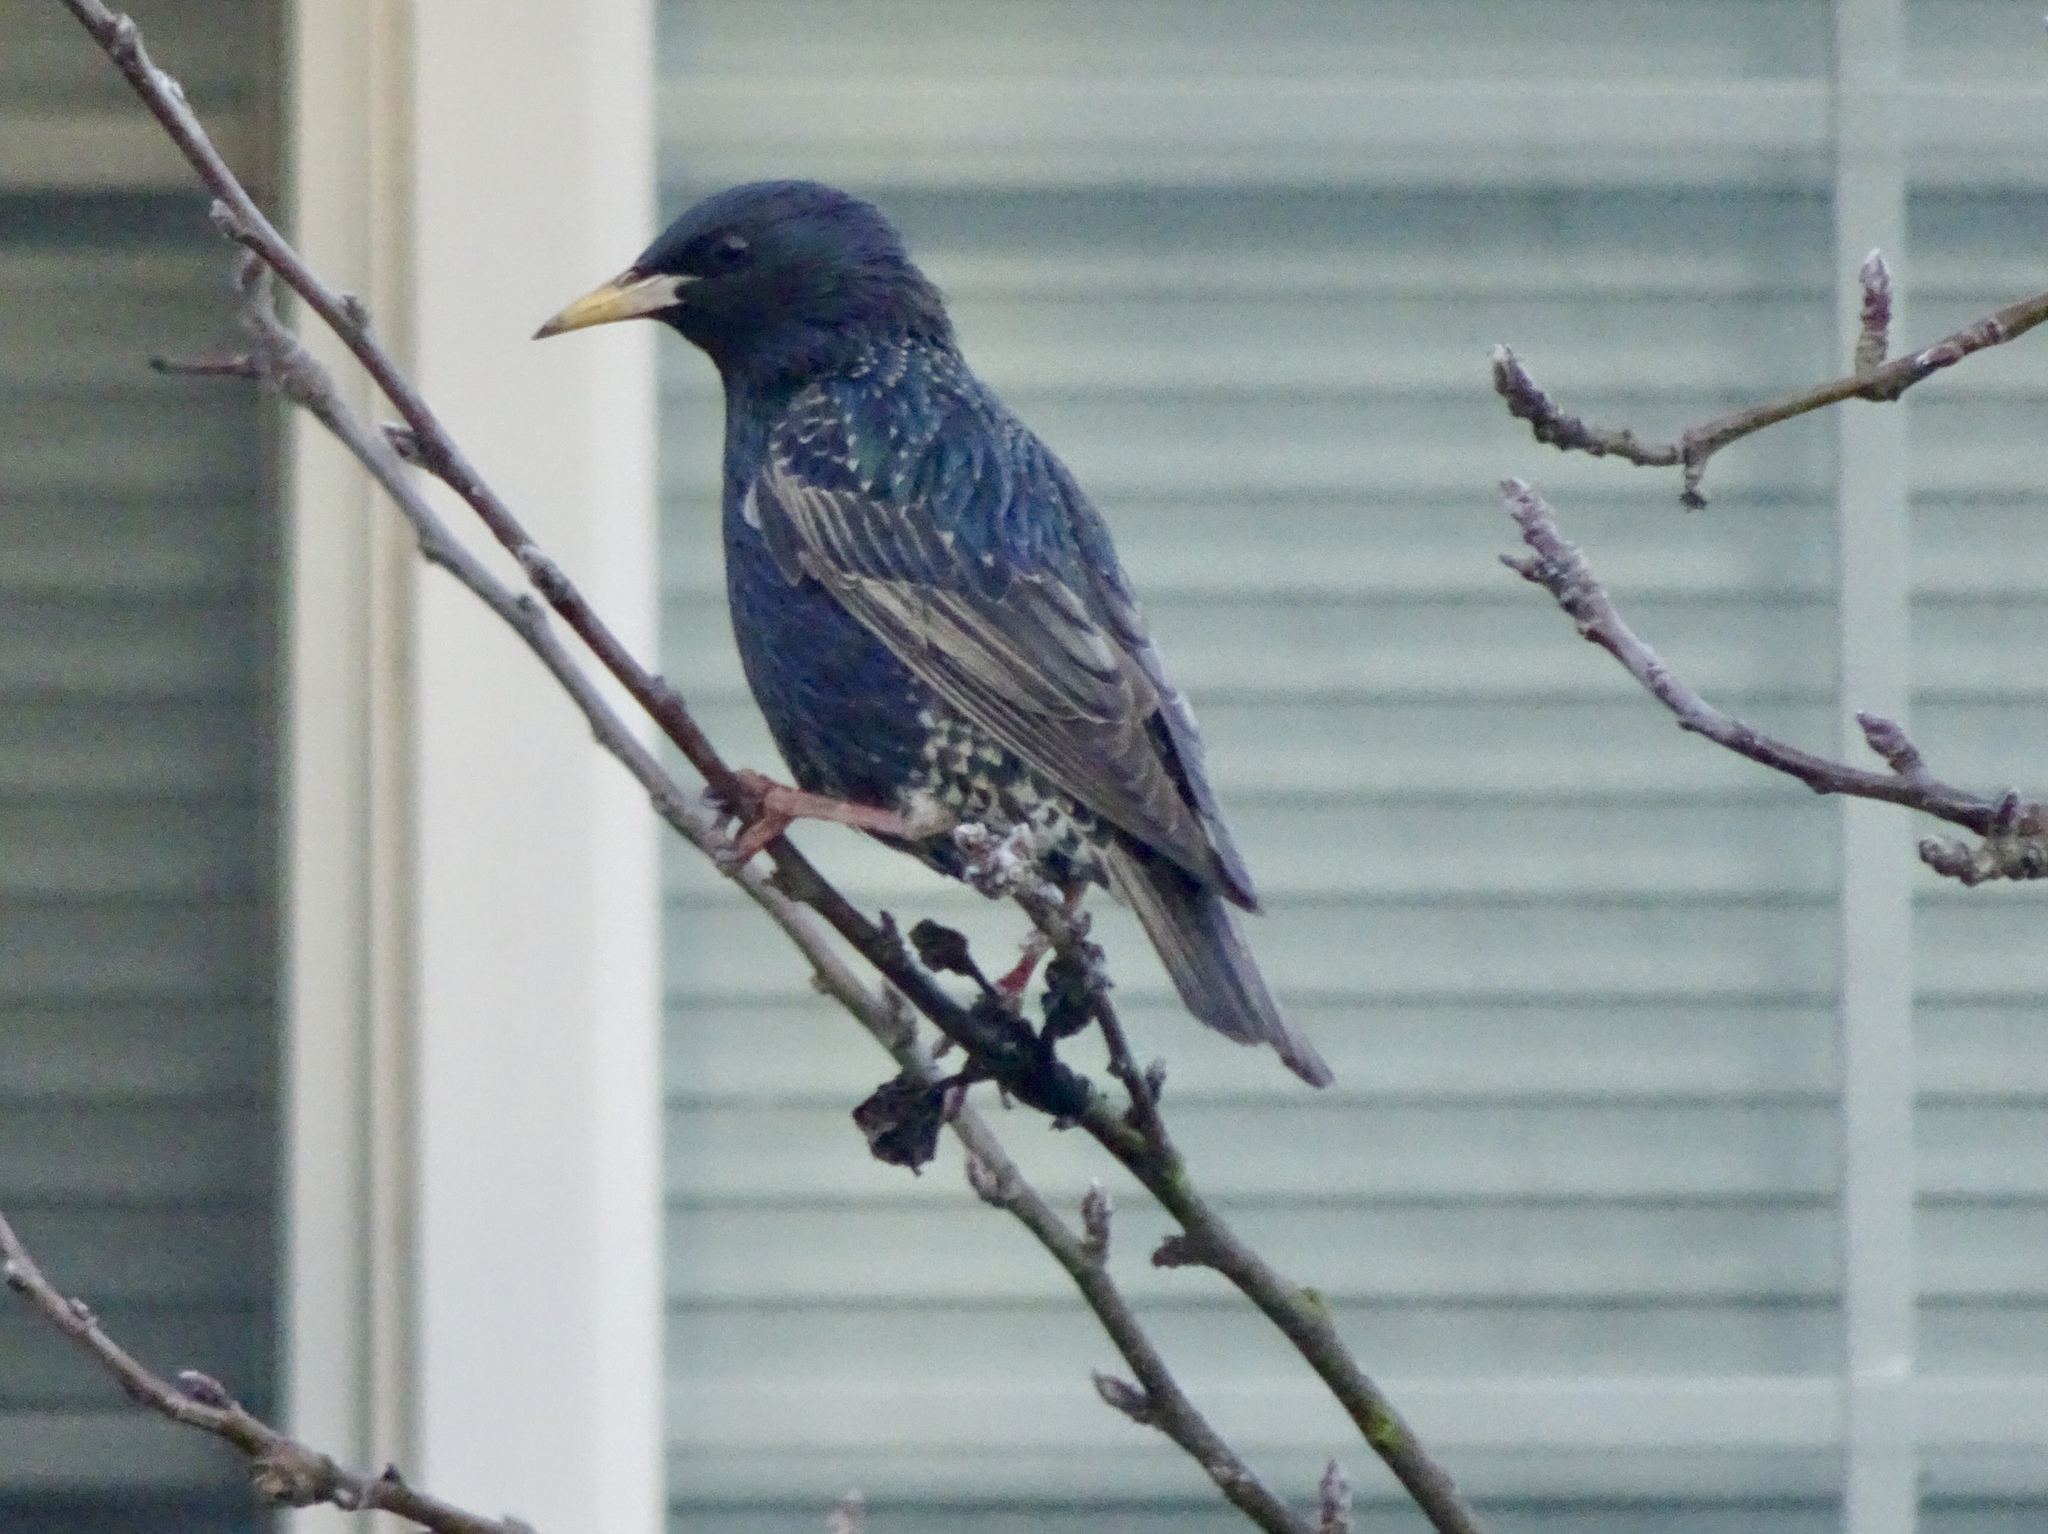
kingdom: Animalia
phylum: Chordata
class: Aves
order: Passeriformes
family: Sturnidae
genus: Sturnus
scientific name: Sturnus vulgaris
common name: Common starling
